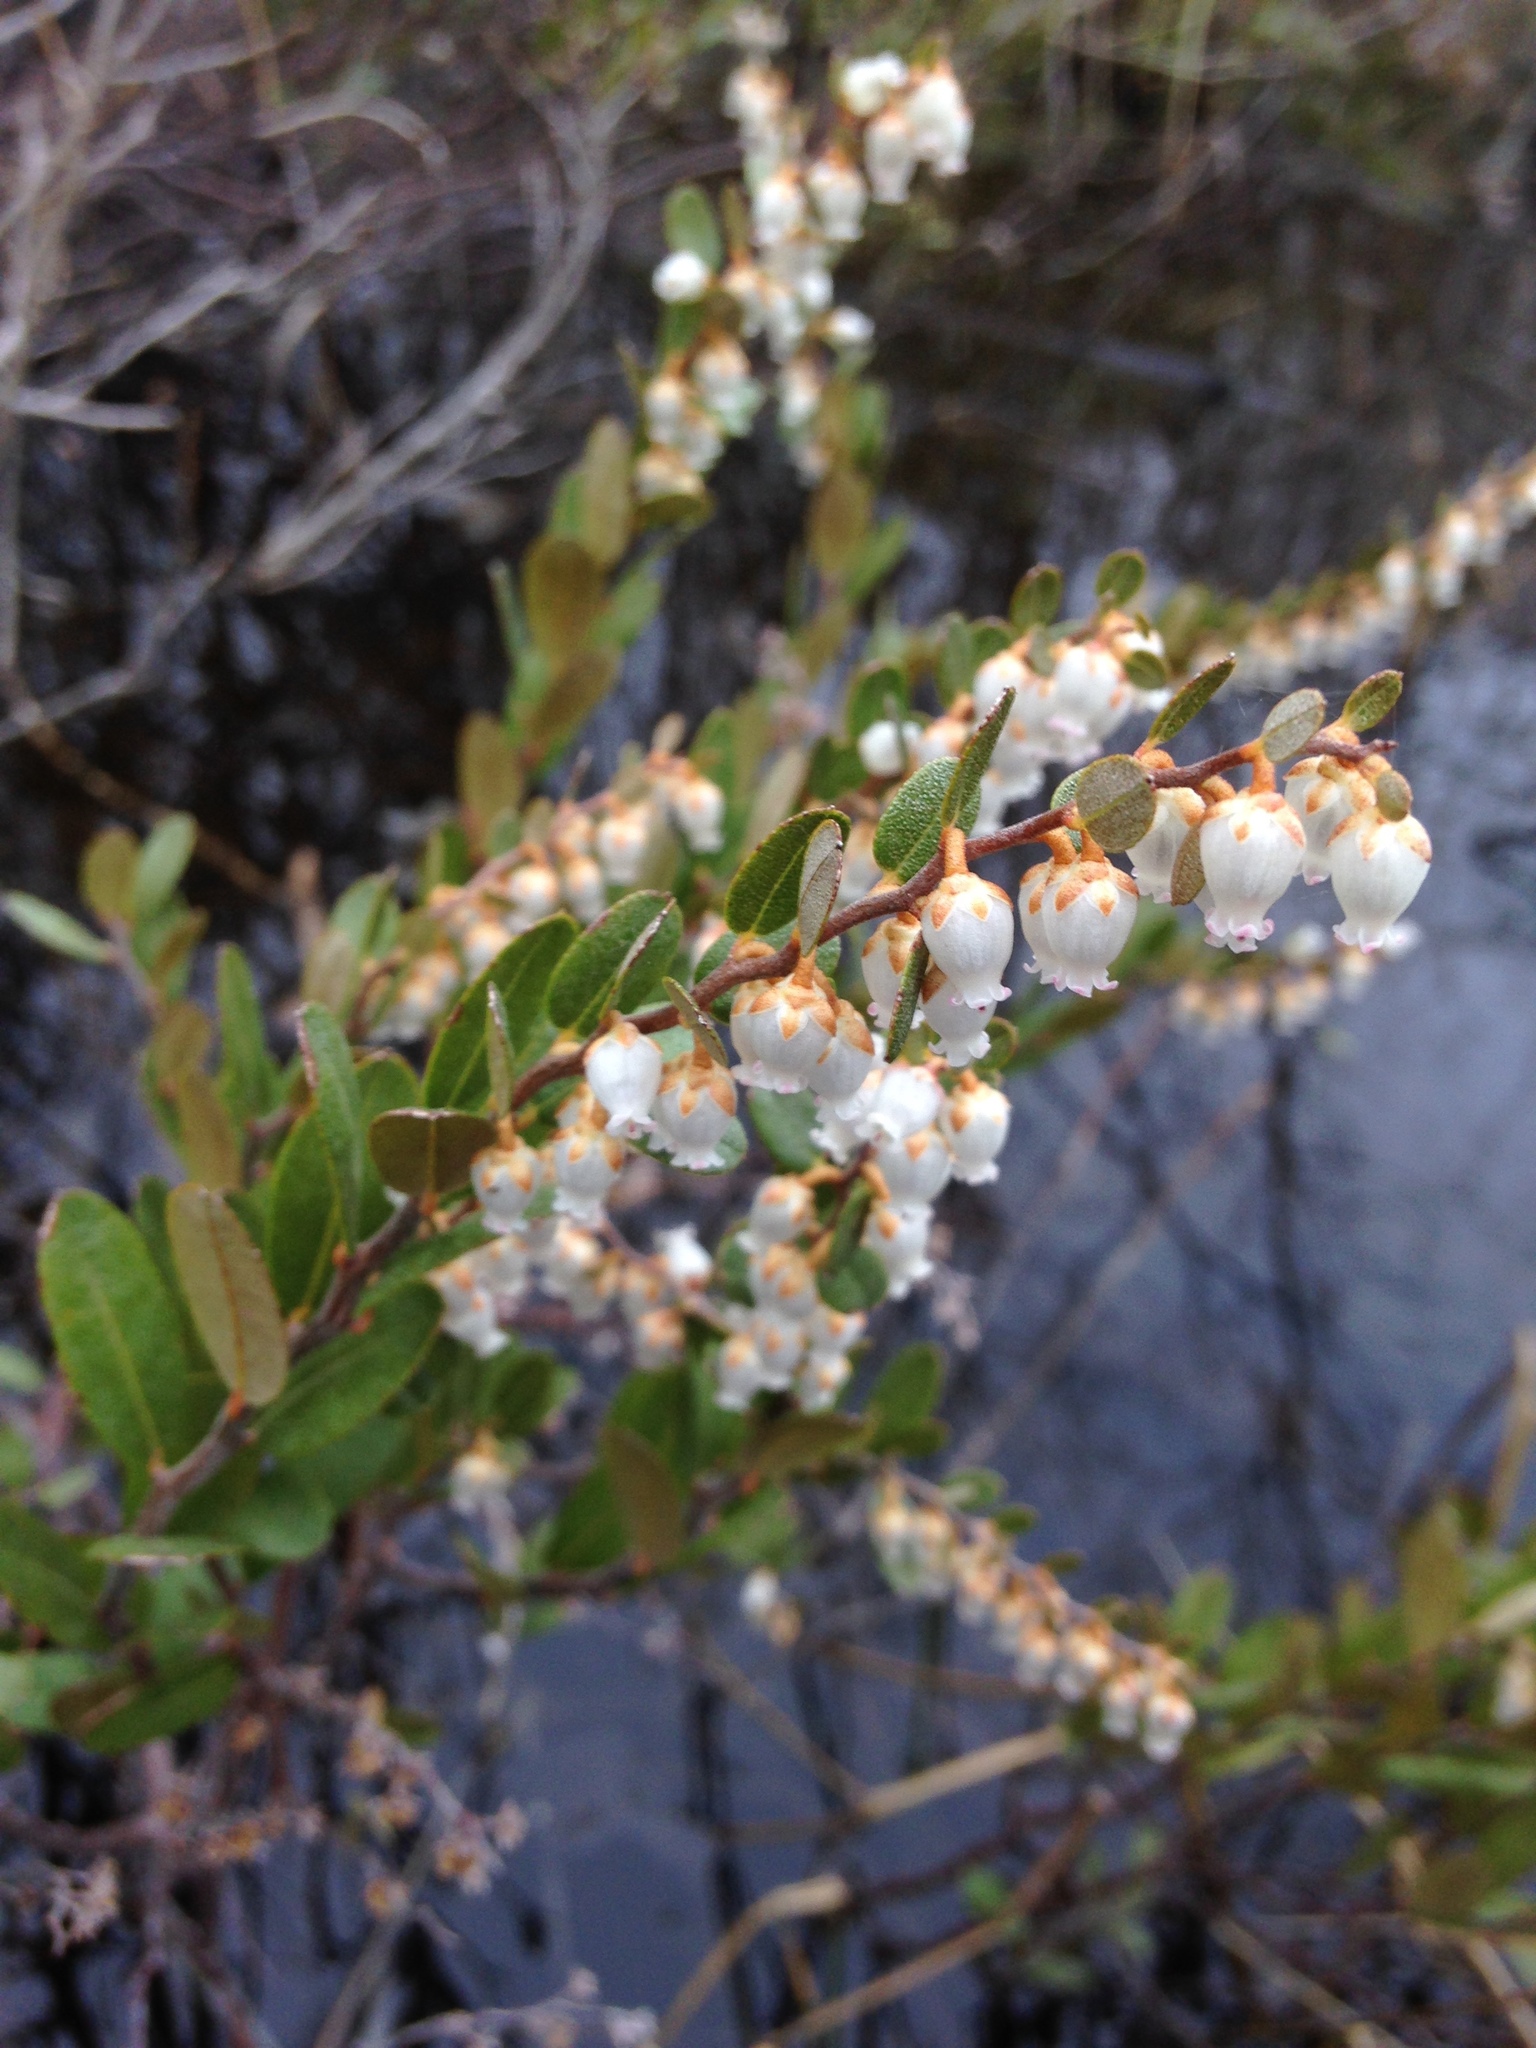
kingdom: Plantae
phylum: Tracheophyta
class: Magnoliopsida
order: Ericales
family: Ericaceae
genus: Chamaedaphne
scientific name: Chamaedaphne calyculata
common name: Leatherleaf
